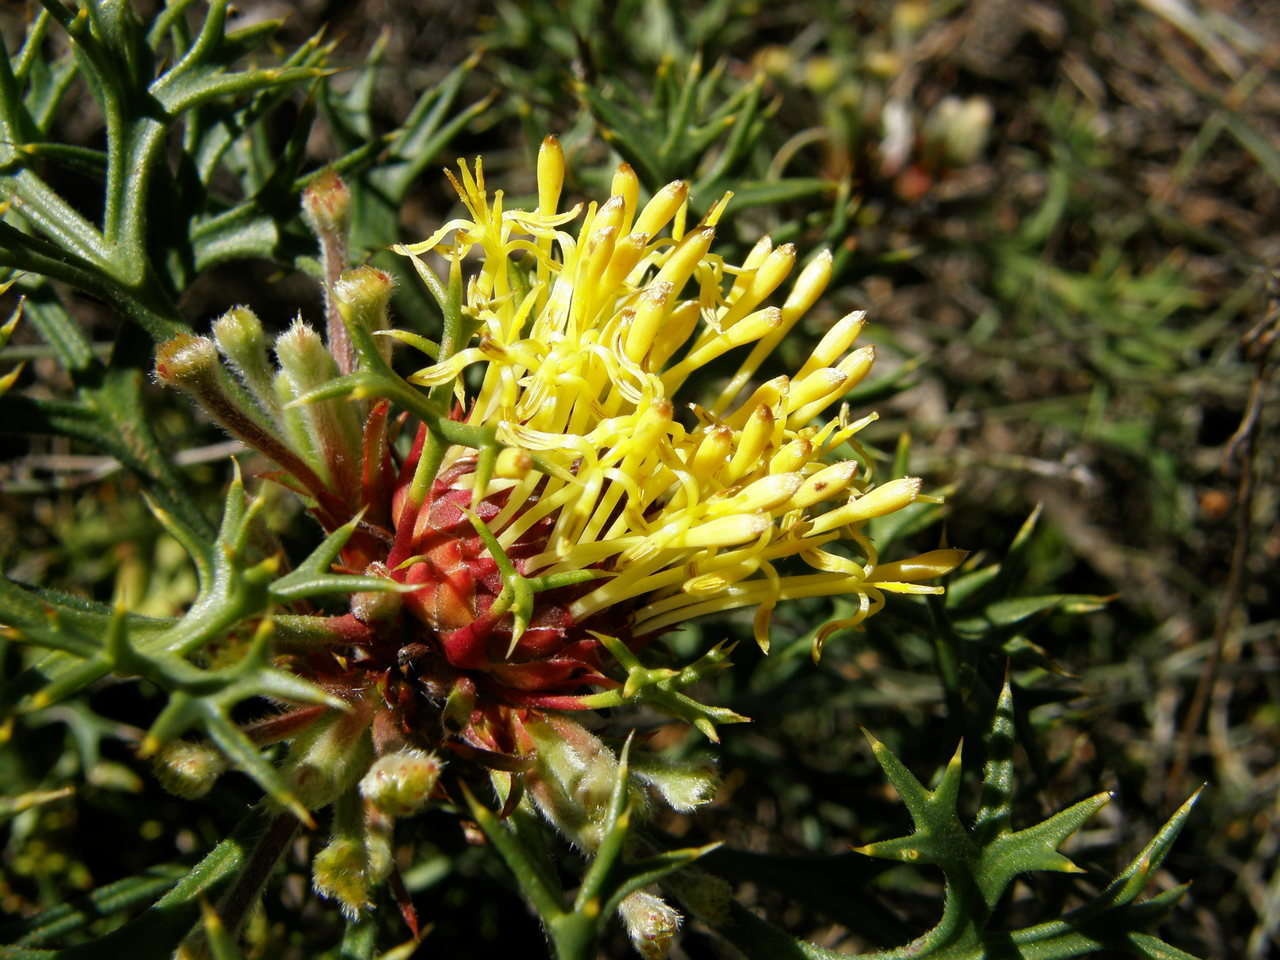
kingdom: Plantae
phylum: Tracheophyta
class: Magnoliopsida
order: Proteales
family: Proteaceae
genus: Isopogon
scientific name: Isopogon ceratophyllus
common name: Horny cone-bush
